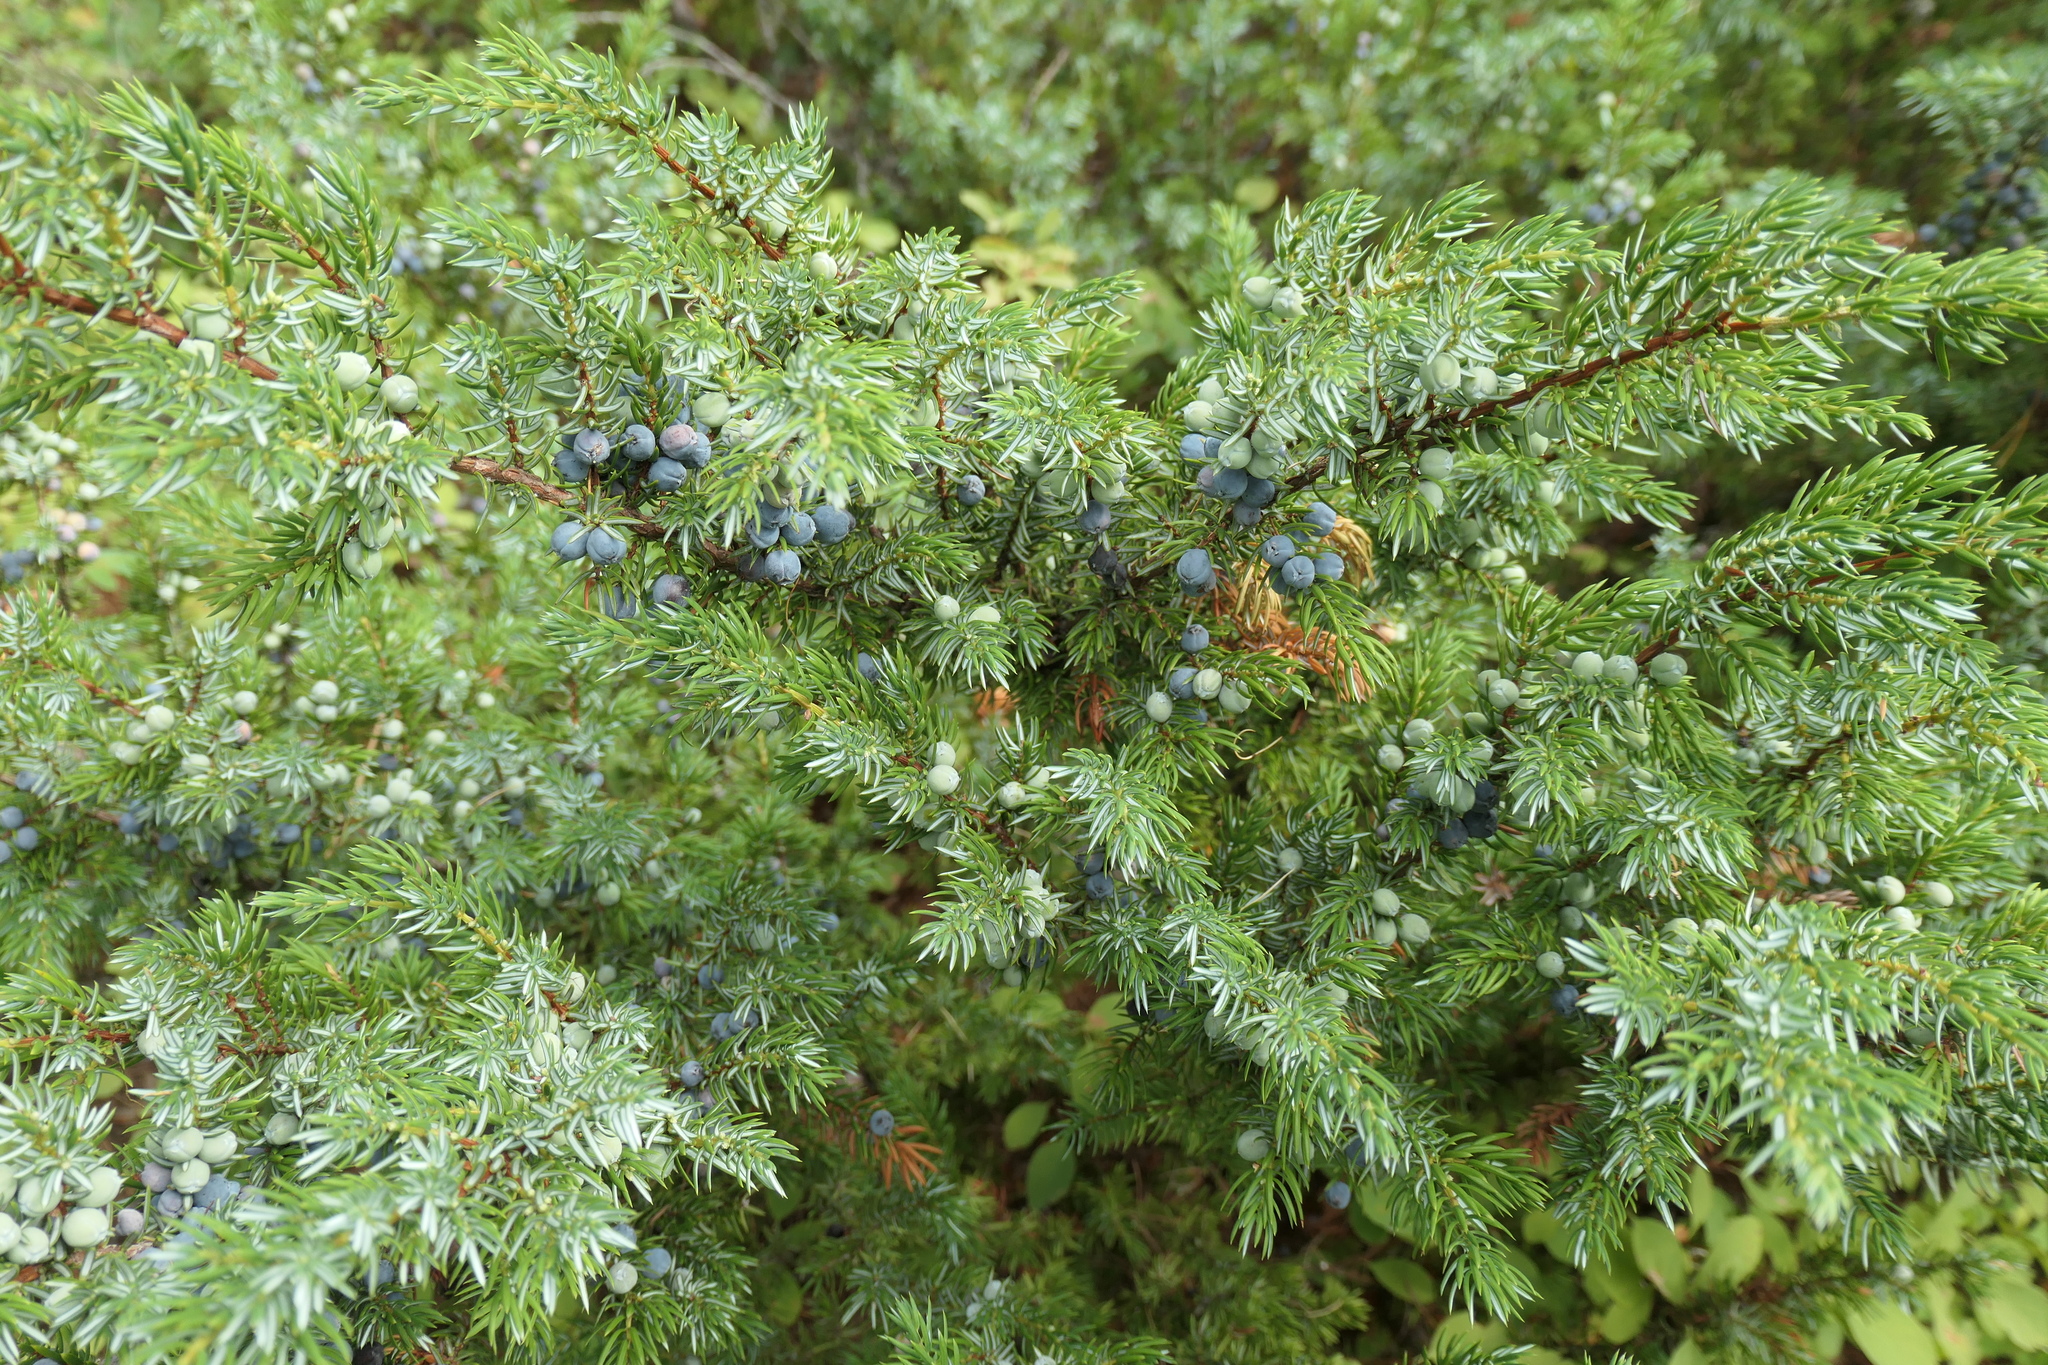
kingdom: Plantae
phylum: Tracheophyta
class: Pinopsida
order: Pinales
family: Cupressaceae
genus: Juniperus
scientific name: Juniperus communis
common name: Common juniper
